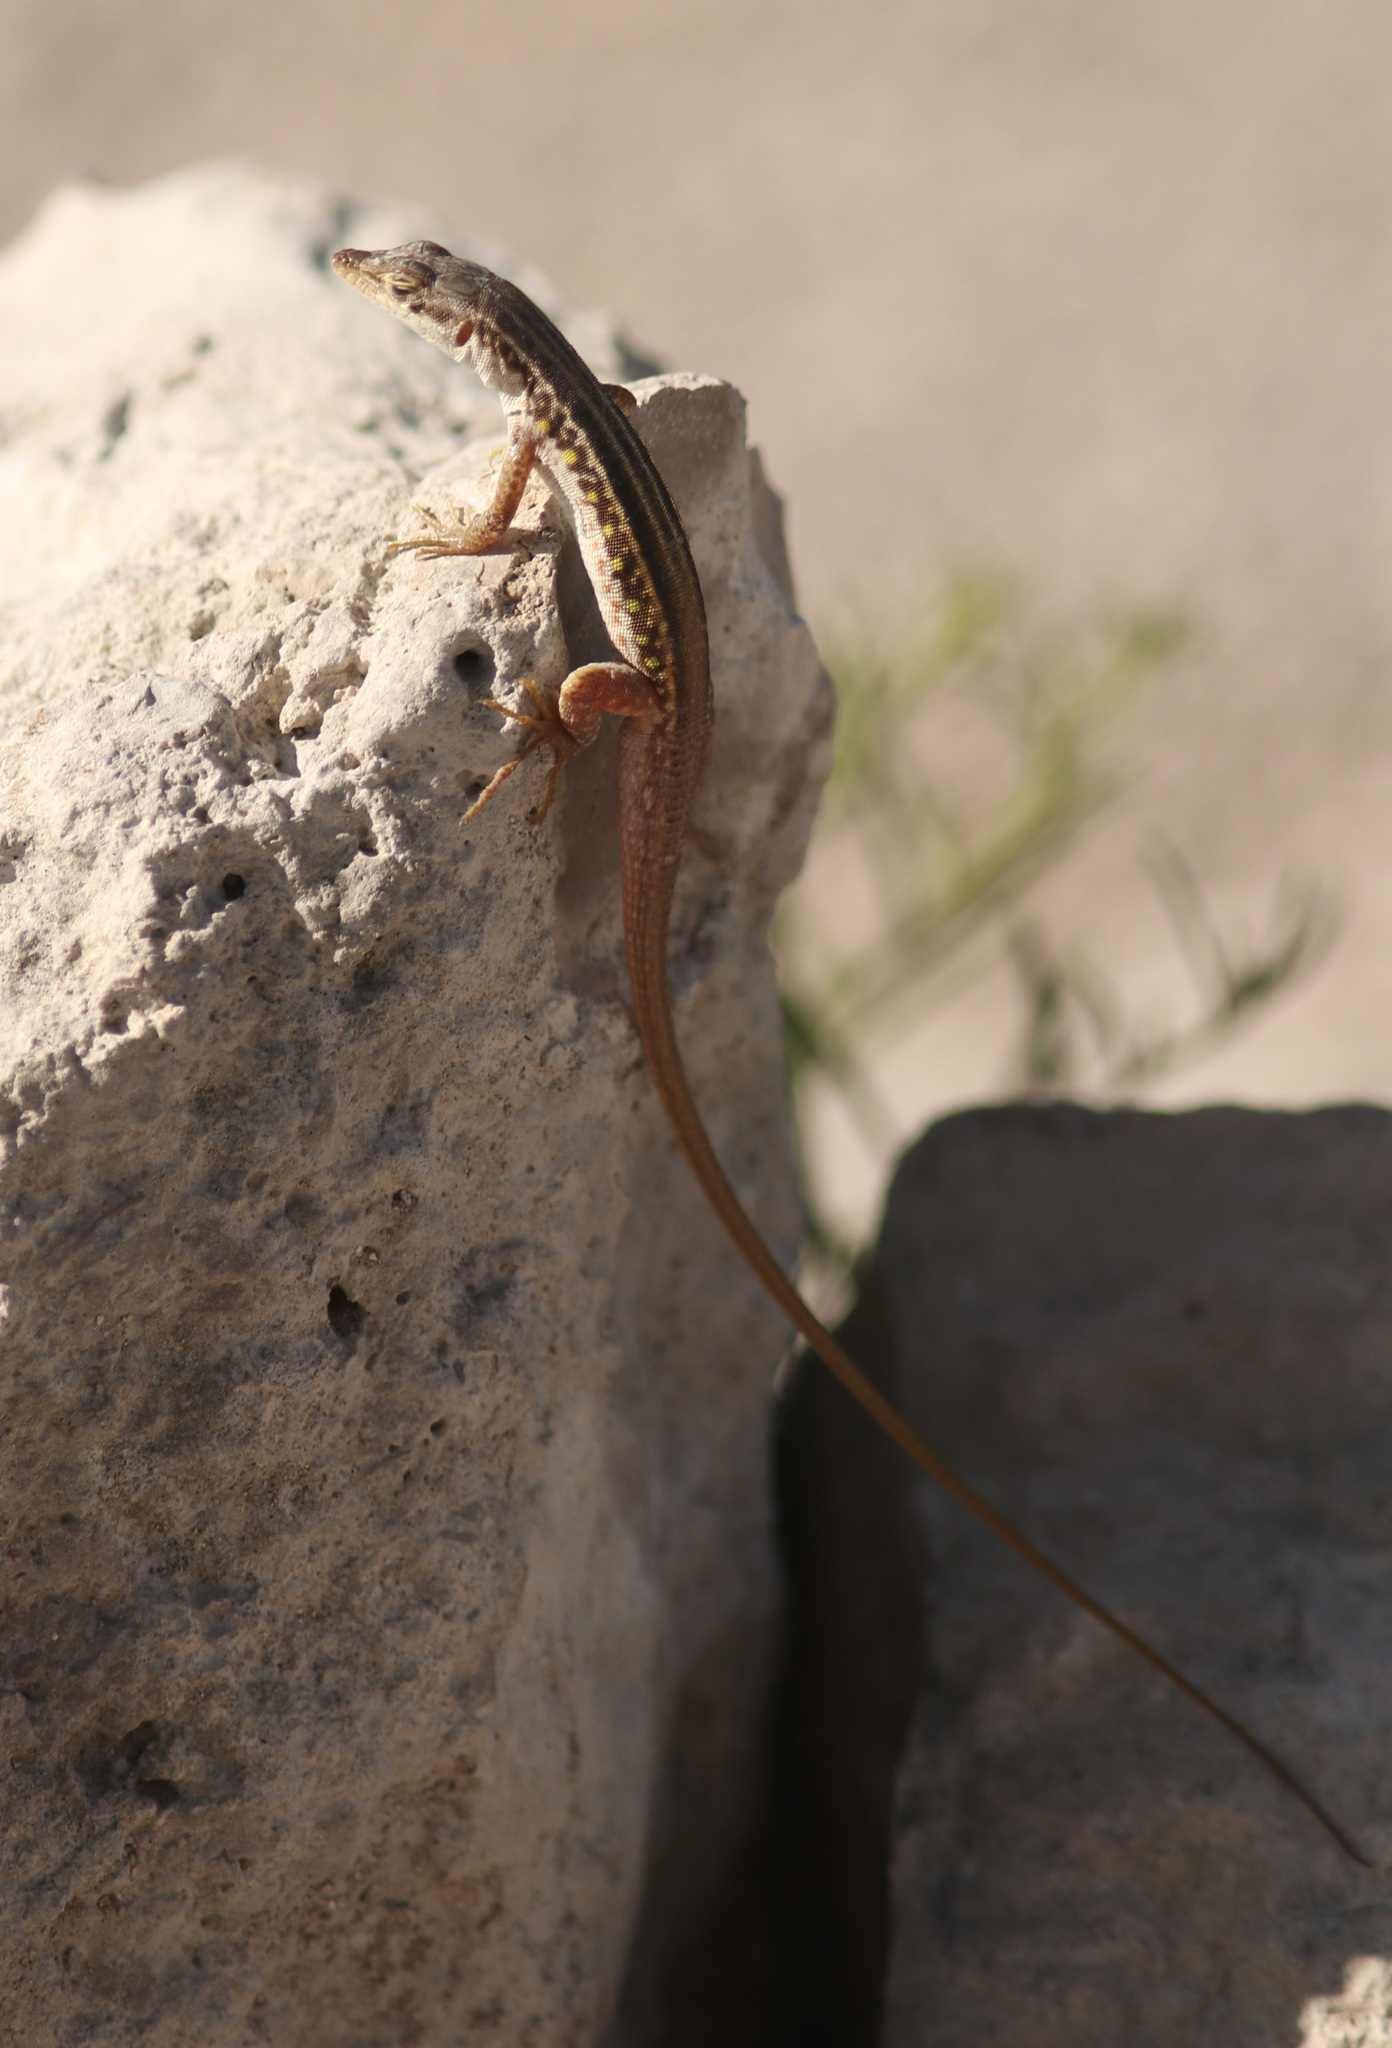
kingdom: Animalia
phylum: Chordata
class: Squamata
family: Lacertidae
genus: Pedioplanis
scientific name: Pedioplanis mayeri
